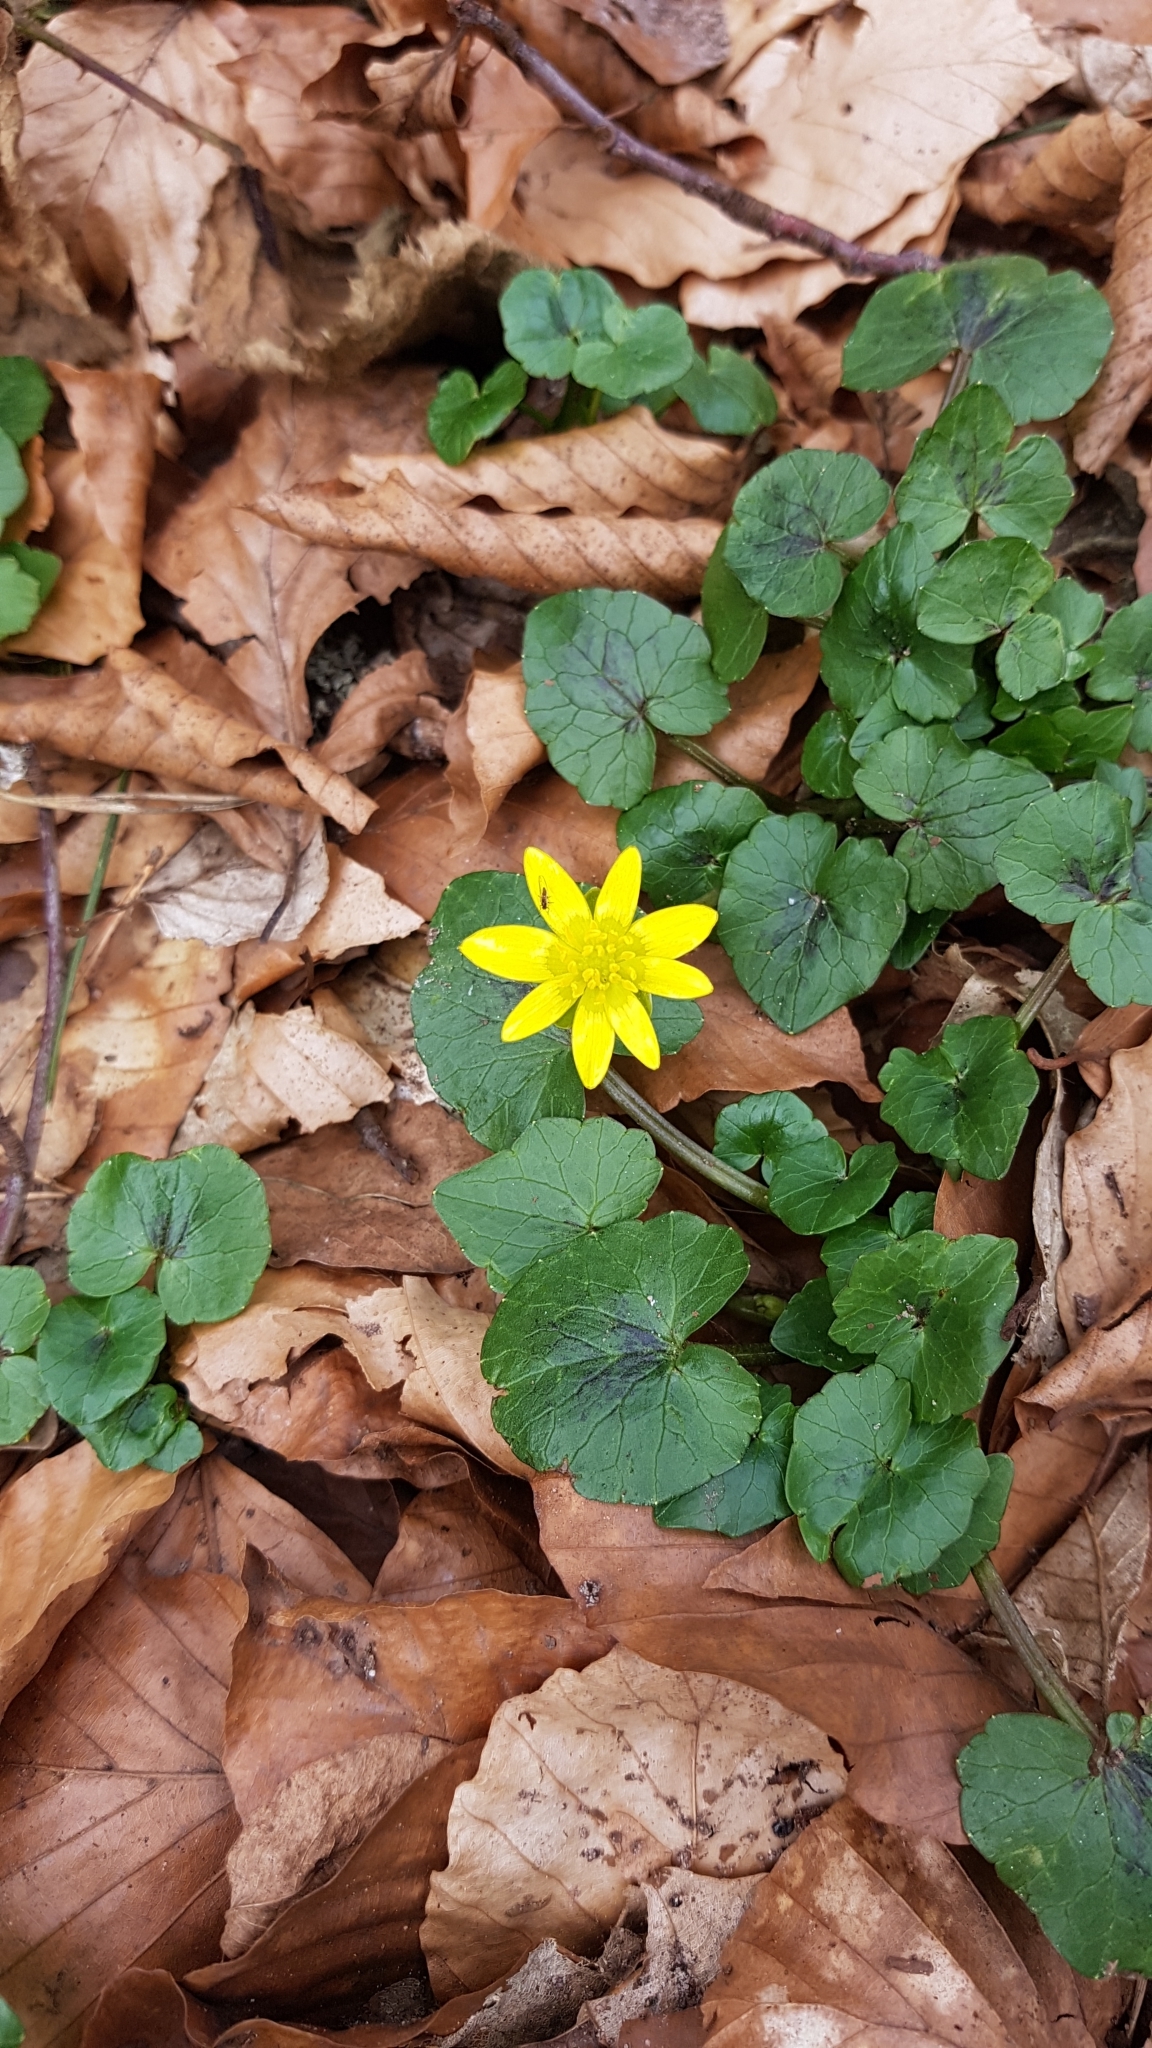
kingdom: Plantae
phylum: Tracheophyta
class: Magnoliopsida
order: Ranunculales
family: Ranunculaceae
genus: Ficaria
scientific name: Ficaria verna
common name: Lesser celandine
